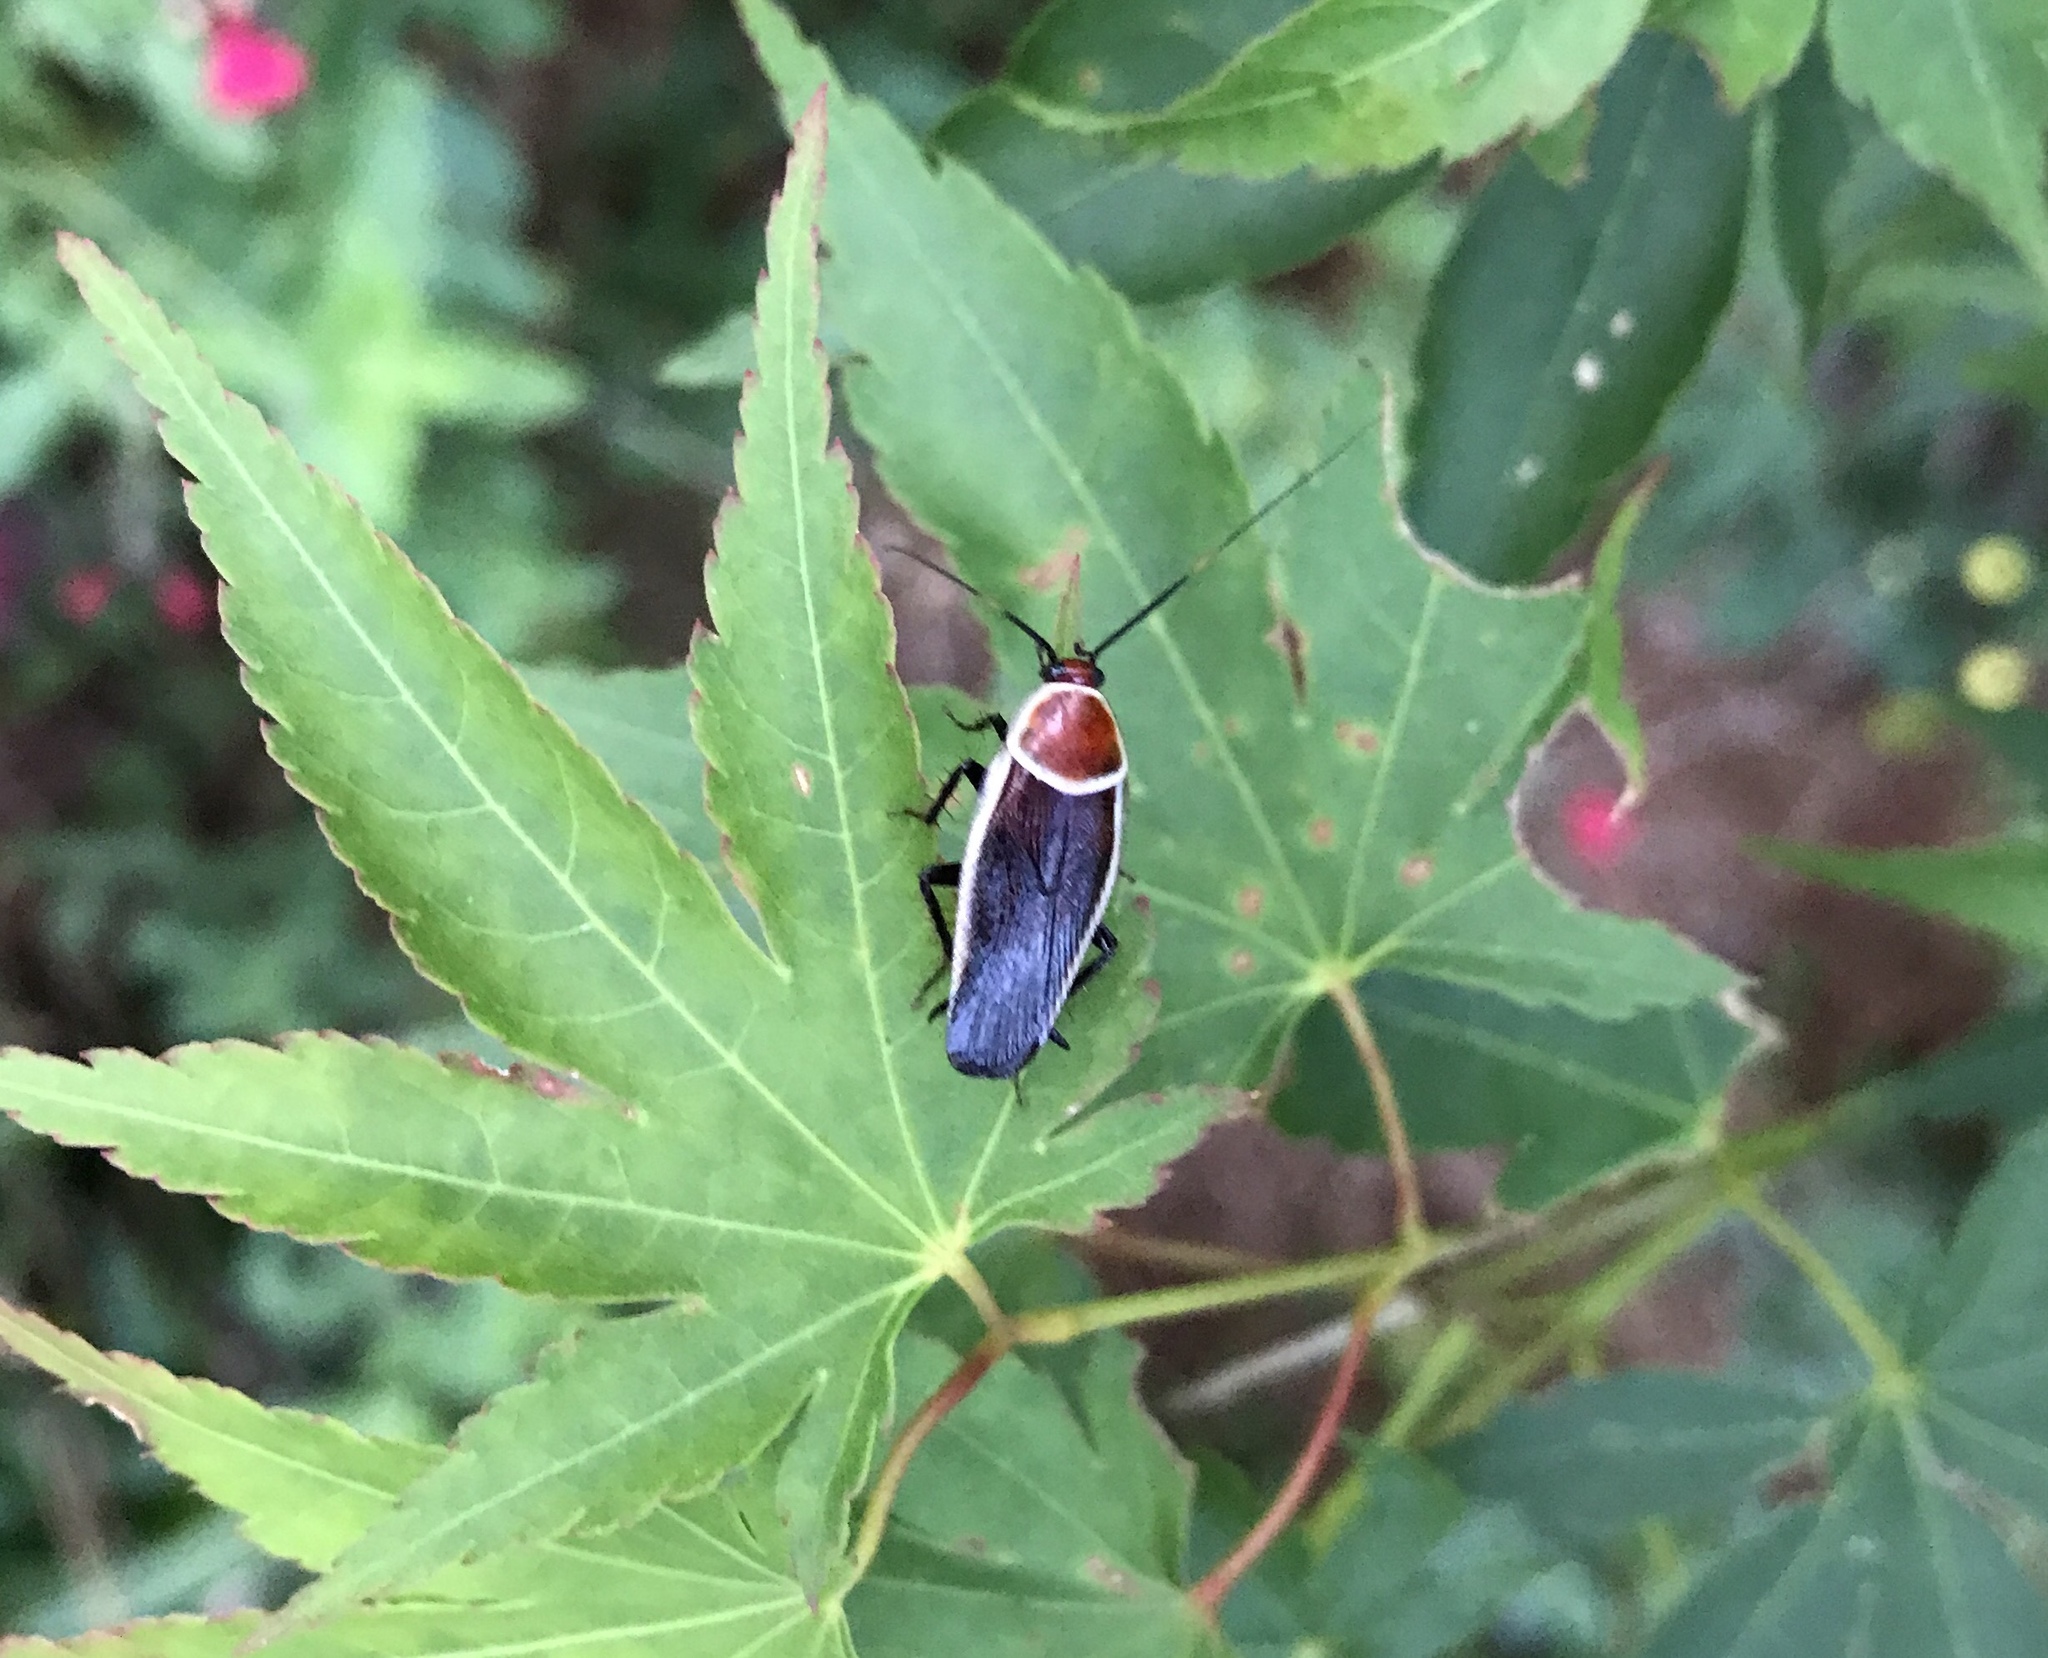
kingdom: Animalia
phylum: Arthropoda
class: Insecta
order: Blattodea
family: Ectobiidae
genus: Pseudomops
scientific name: Pseudomops septentrionalis
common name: Pale-bordered field cockroach
